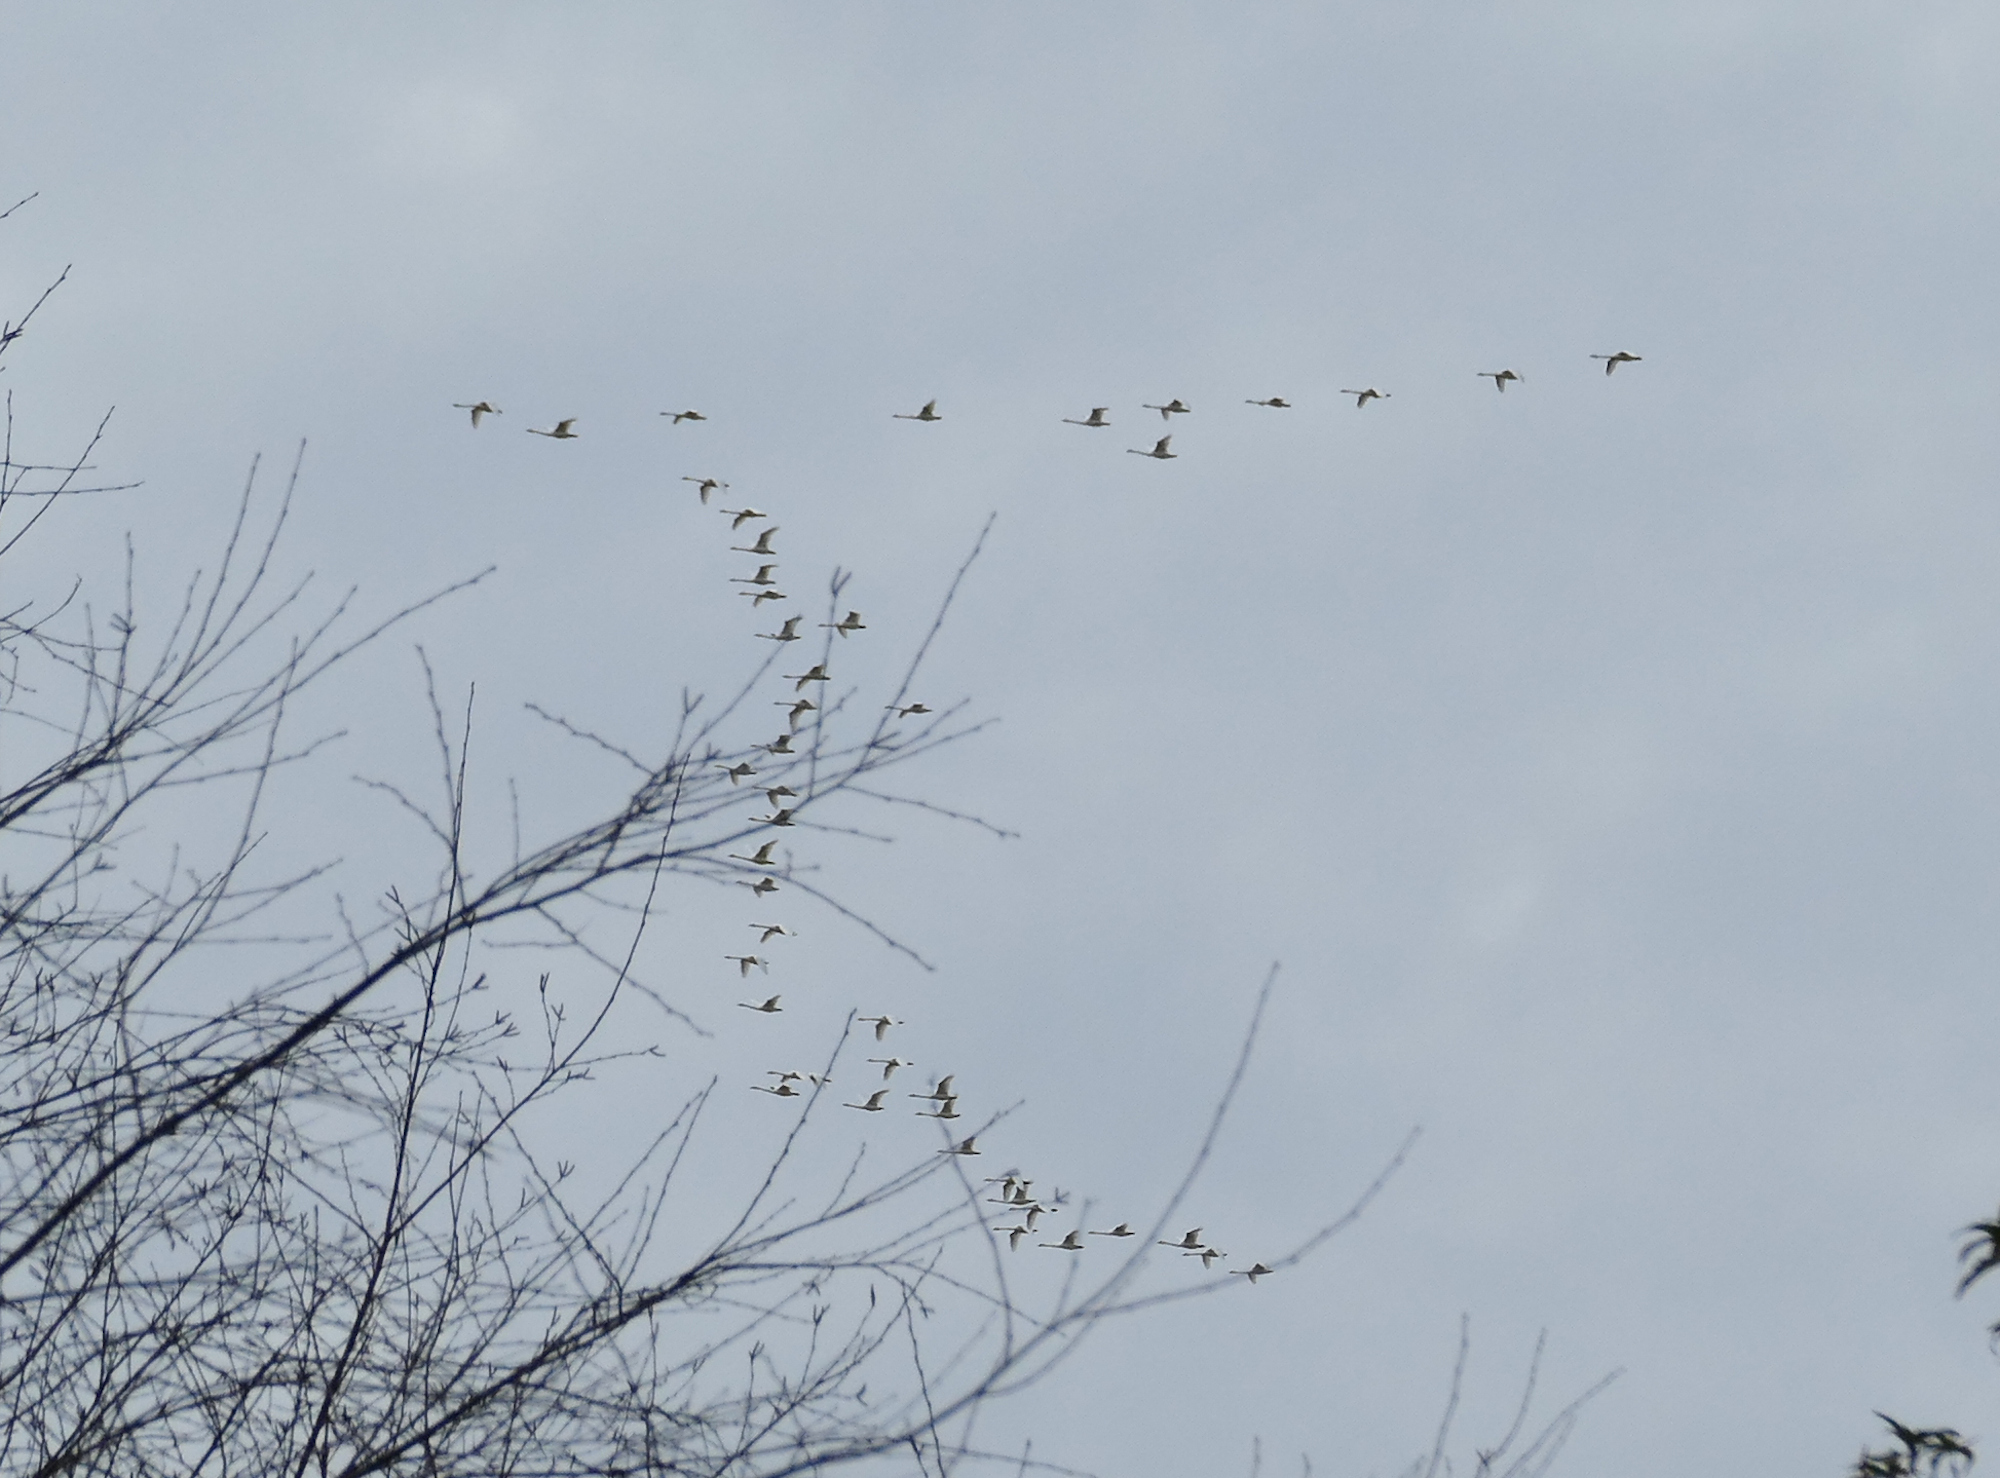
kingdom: Animalia
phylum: Chordata
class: Aves
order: Anseriformes
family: Anatidae
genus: Cygnus
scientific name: Cygnus columbianus
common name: Tundra swan
